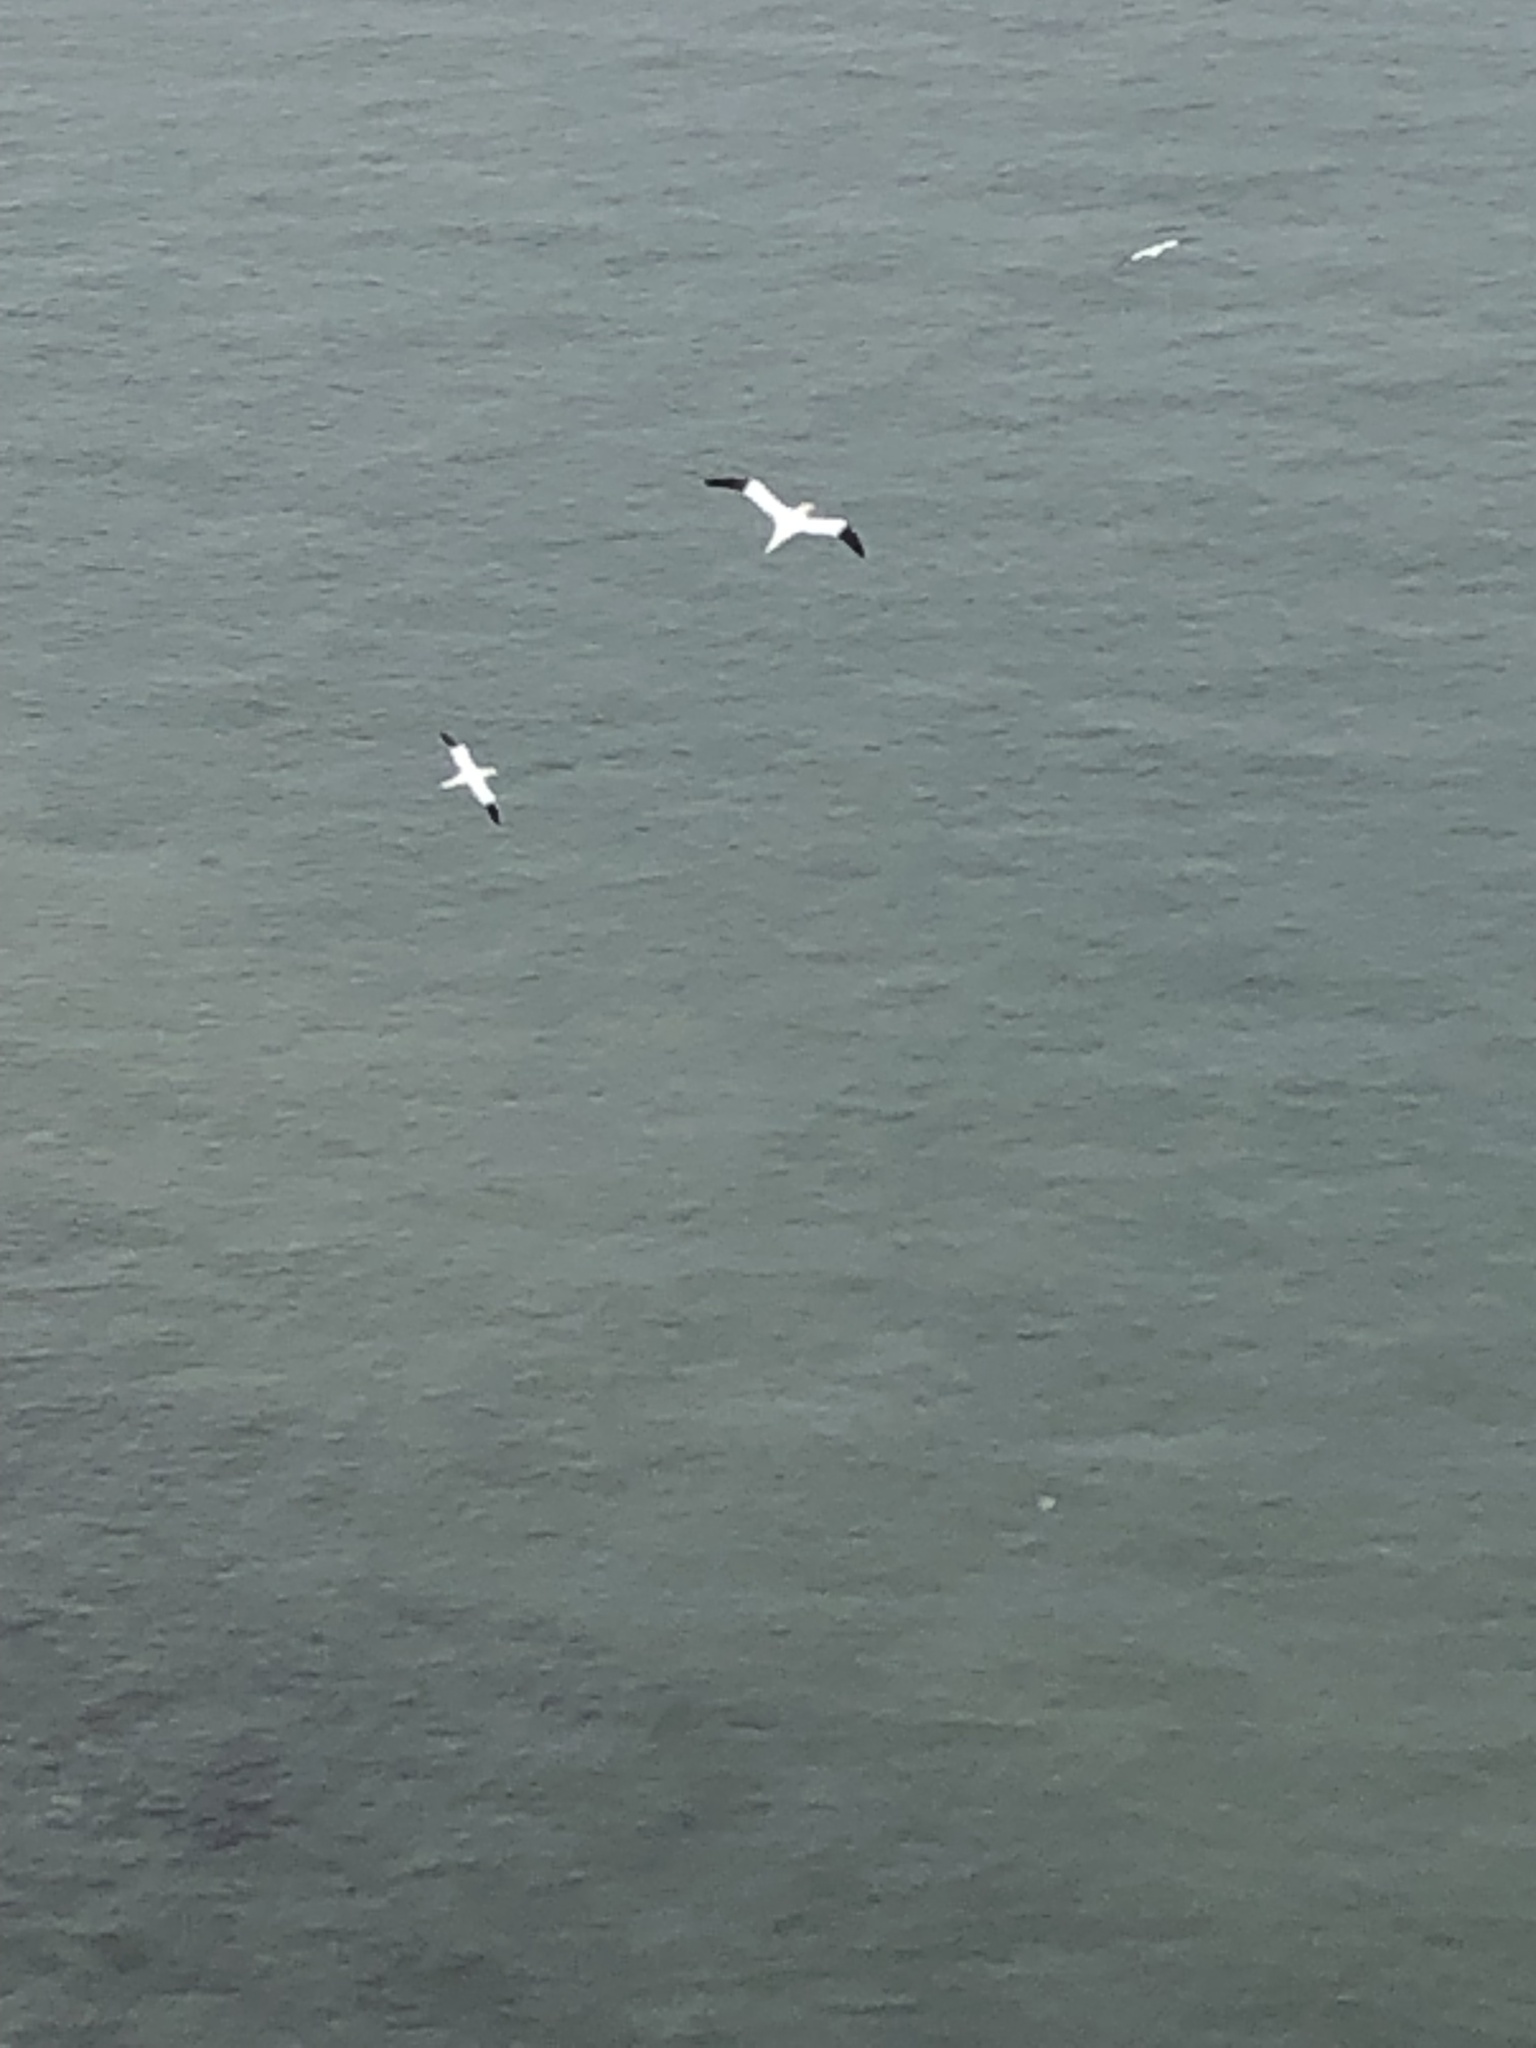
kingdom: Animalia
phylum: Chordata
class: Aves
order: Suliformes
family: Sulidae
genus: Morus
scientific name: Morus bassanus
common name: Northern gannet
